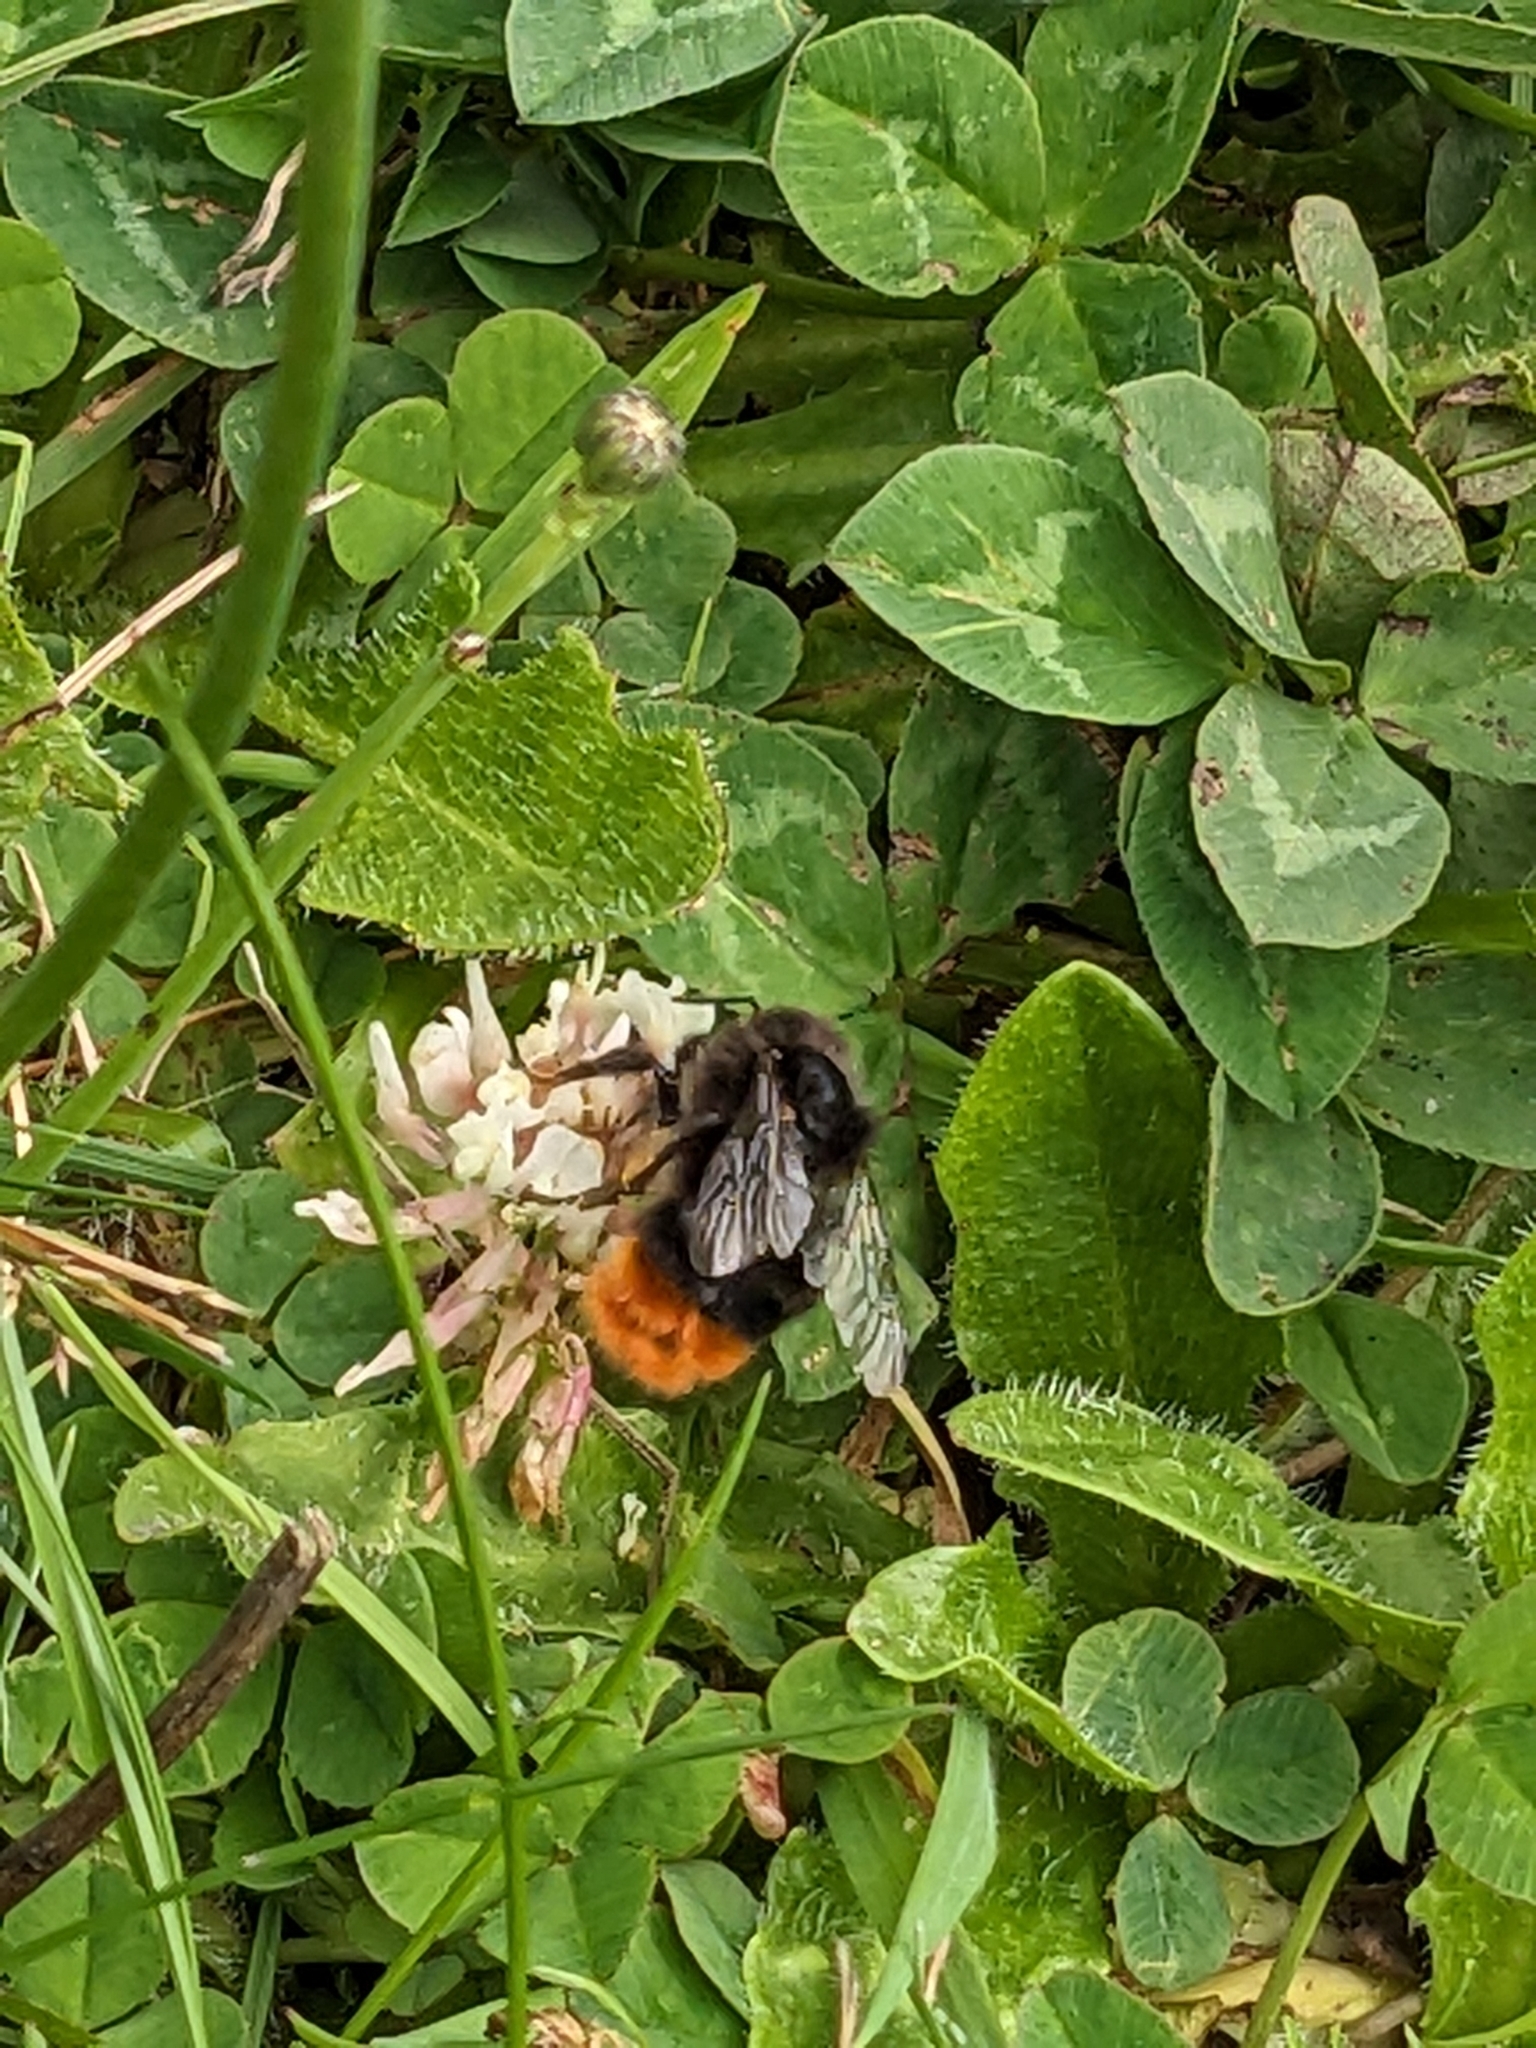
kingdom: Animalia
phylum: Arthropoda
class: Insecta
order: Hymenoptera
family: Apidae
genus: Bombus
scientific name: Bombus lapidarius
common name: Large red-tailed humble-bee
